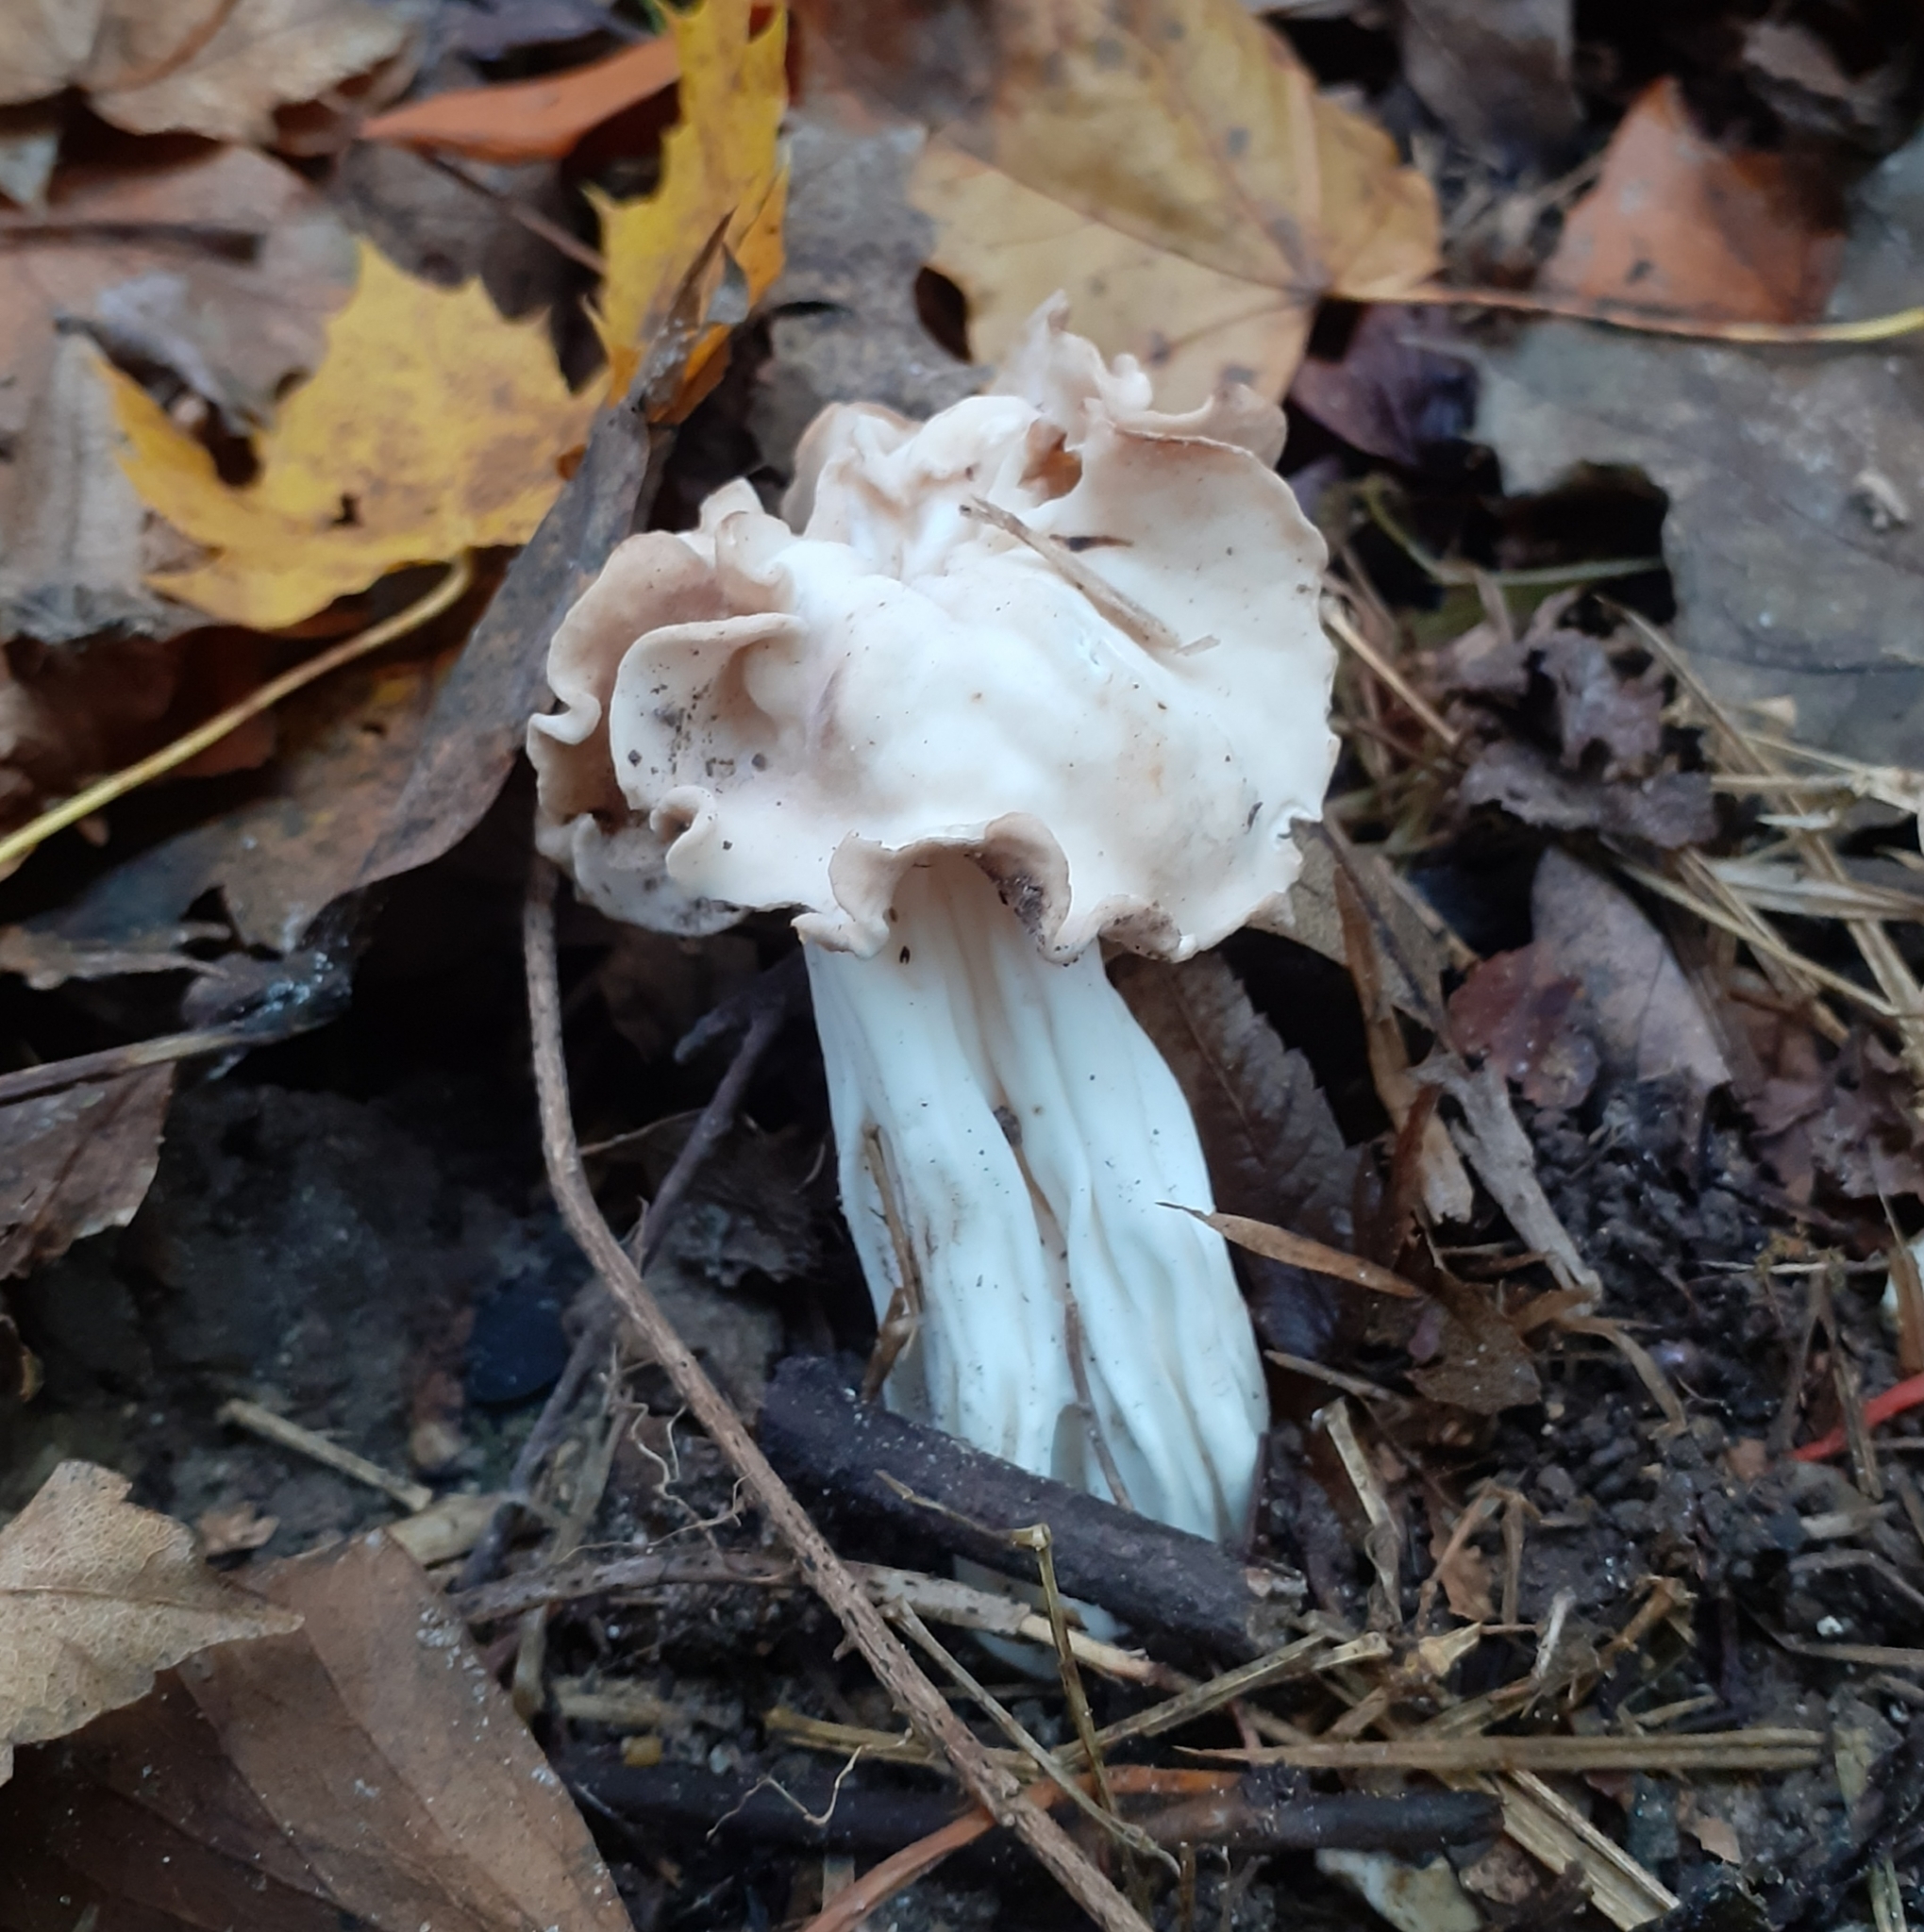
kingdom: Fungi
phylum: Ascomycota
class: Pezizomycetes
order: Pezizales
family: Helvellaceae
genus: Helvella
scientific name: Helvella crispa
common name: White saddle
